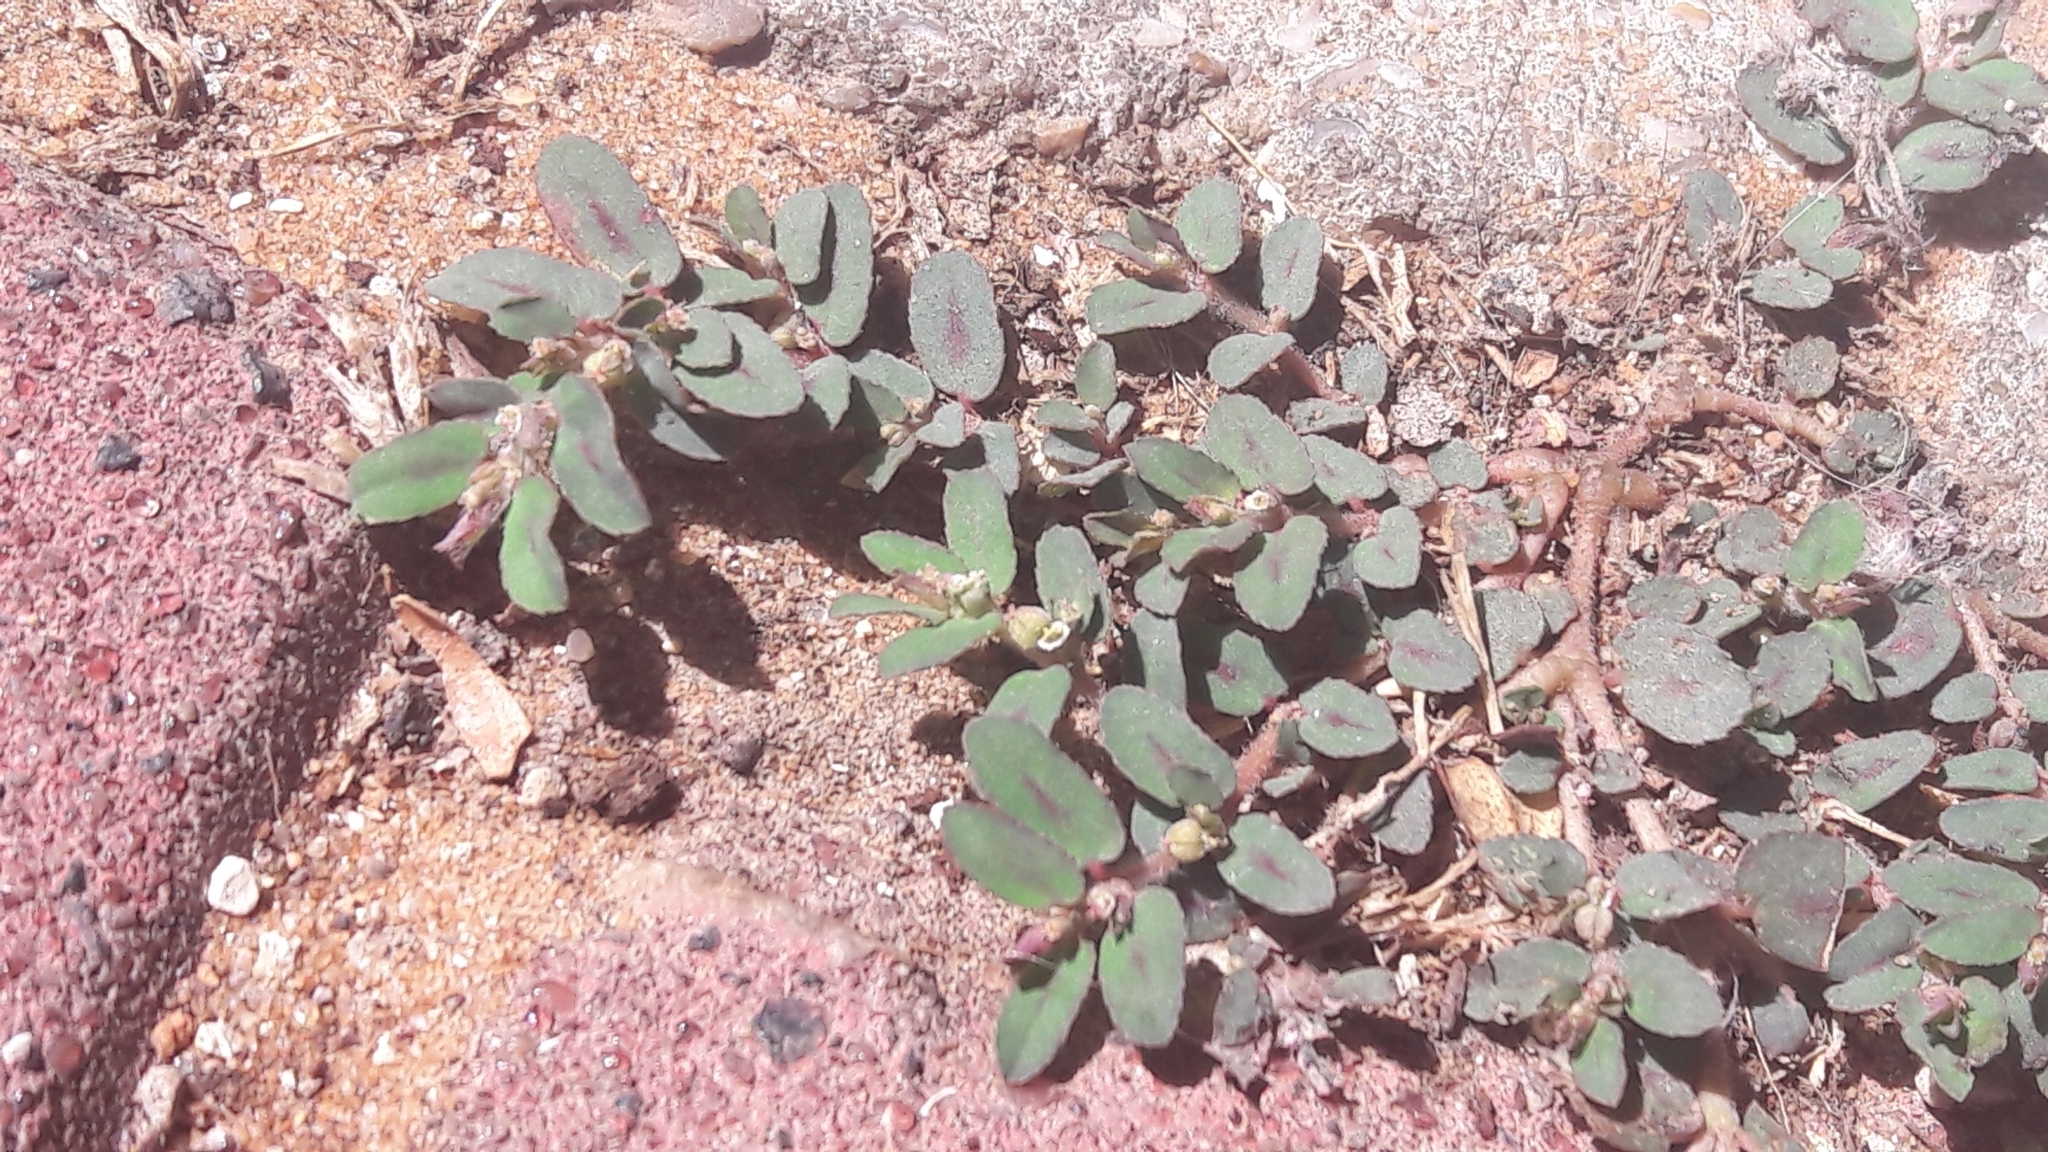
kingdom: Plantae
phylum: Tracheophyta
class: Magnoliopsida
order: Malpighiales
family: Euphorbiaceae
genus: Euphorbia
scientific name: Euphorbia maculata
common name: Spotted spurge
